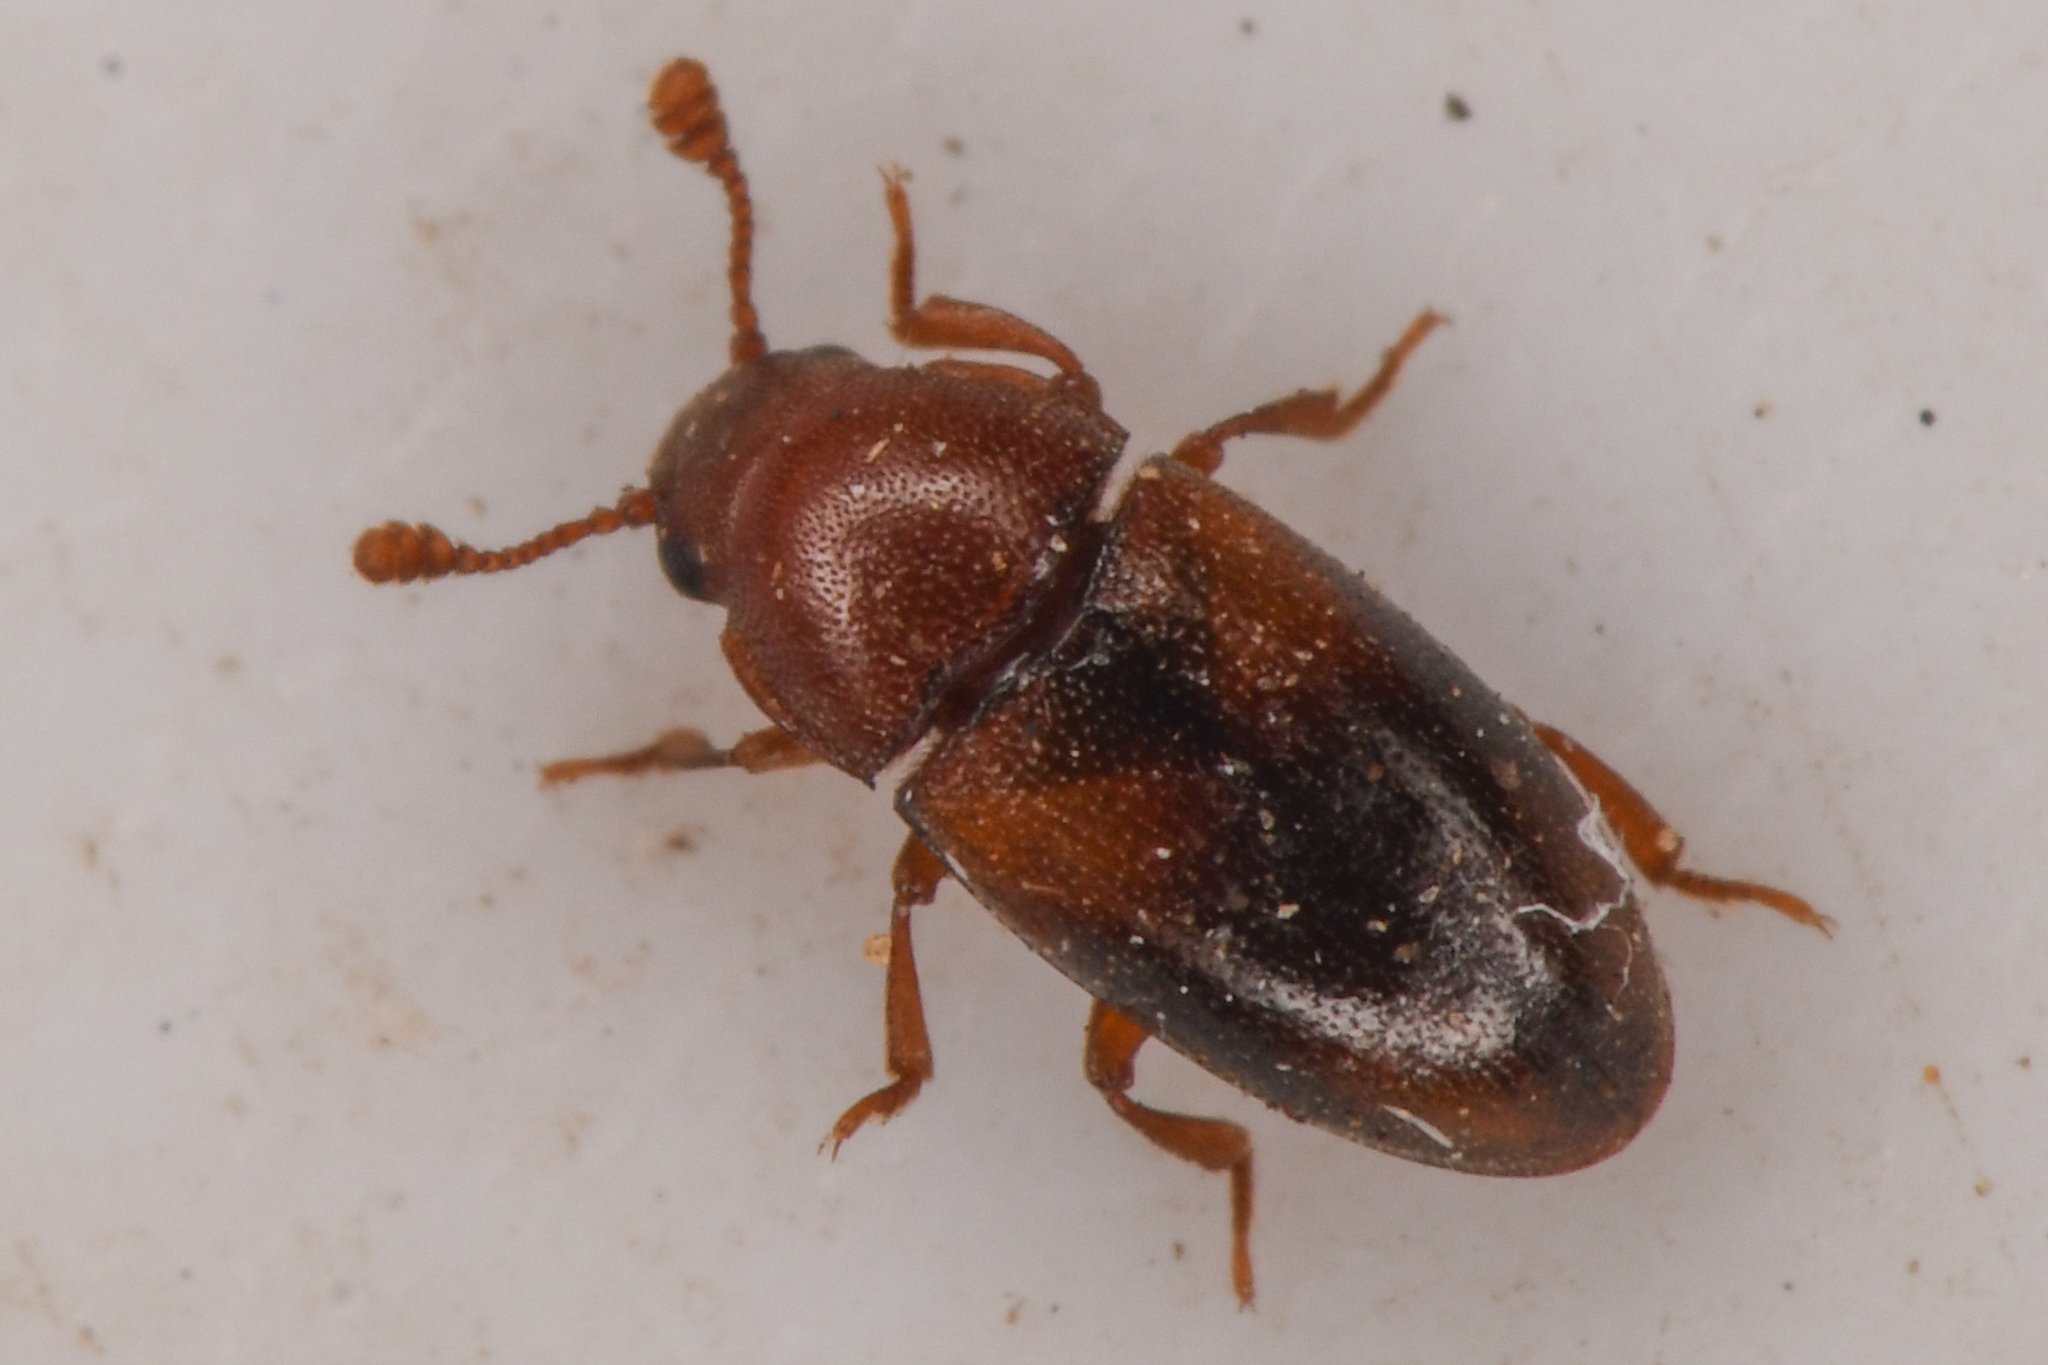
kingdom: Animalia
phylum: Arthropoda
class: Insecta
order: Coleoptera
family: Erotylidae
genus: Dacne
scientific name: Dacne californica
